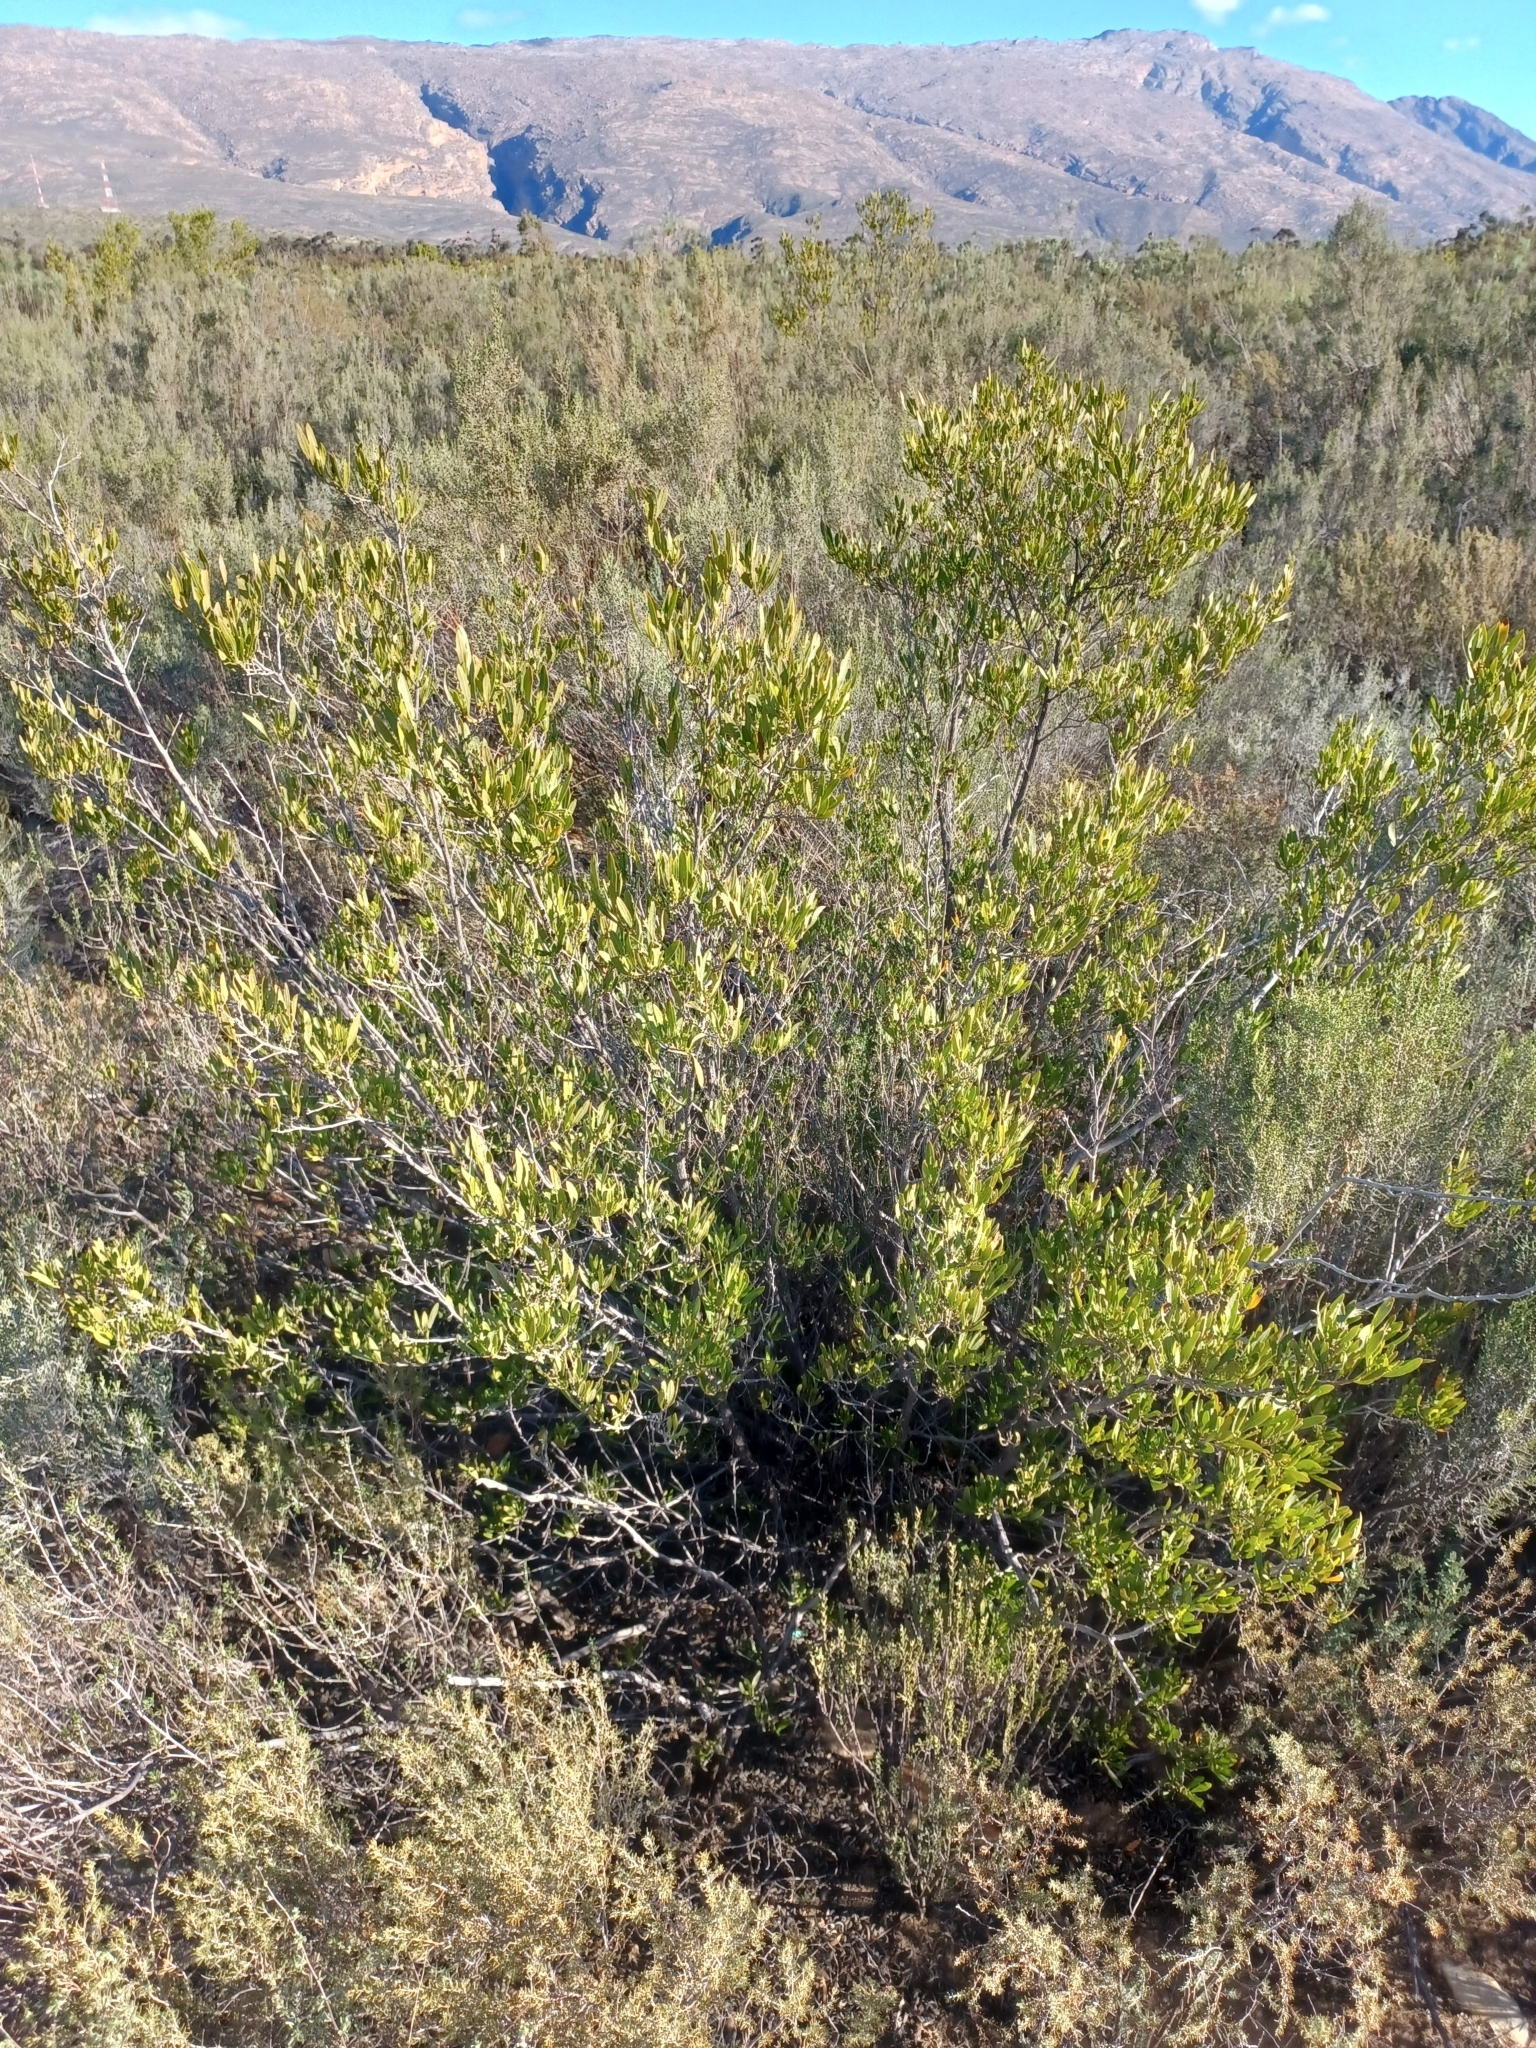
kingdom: Plantae
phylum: Tracheophyta
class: Magnoliopsida
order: Sapindales
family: Sapindaceae
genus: Dodonaea
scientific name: Dodonaea viscosa
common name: Hopbush
